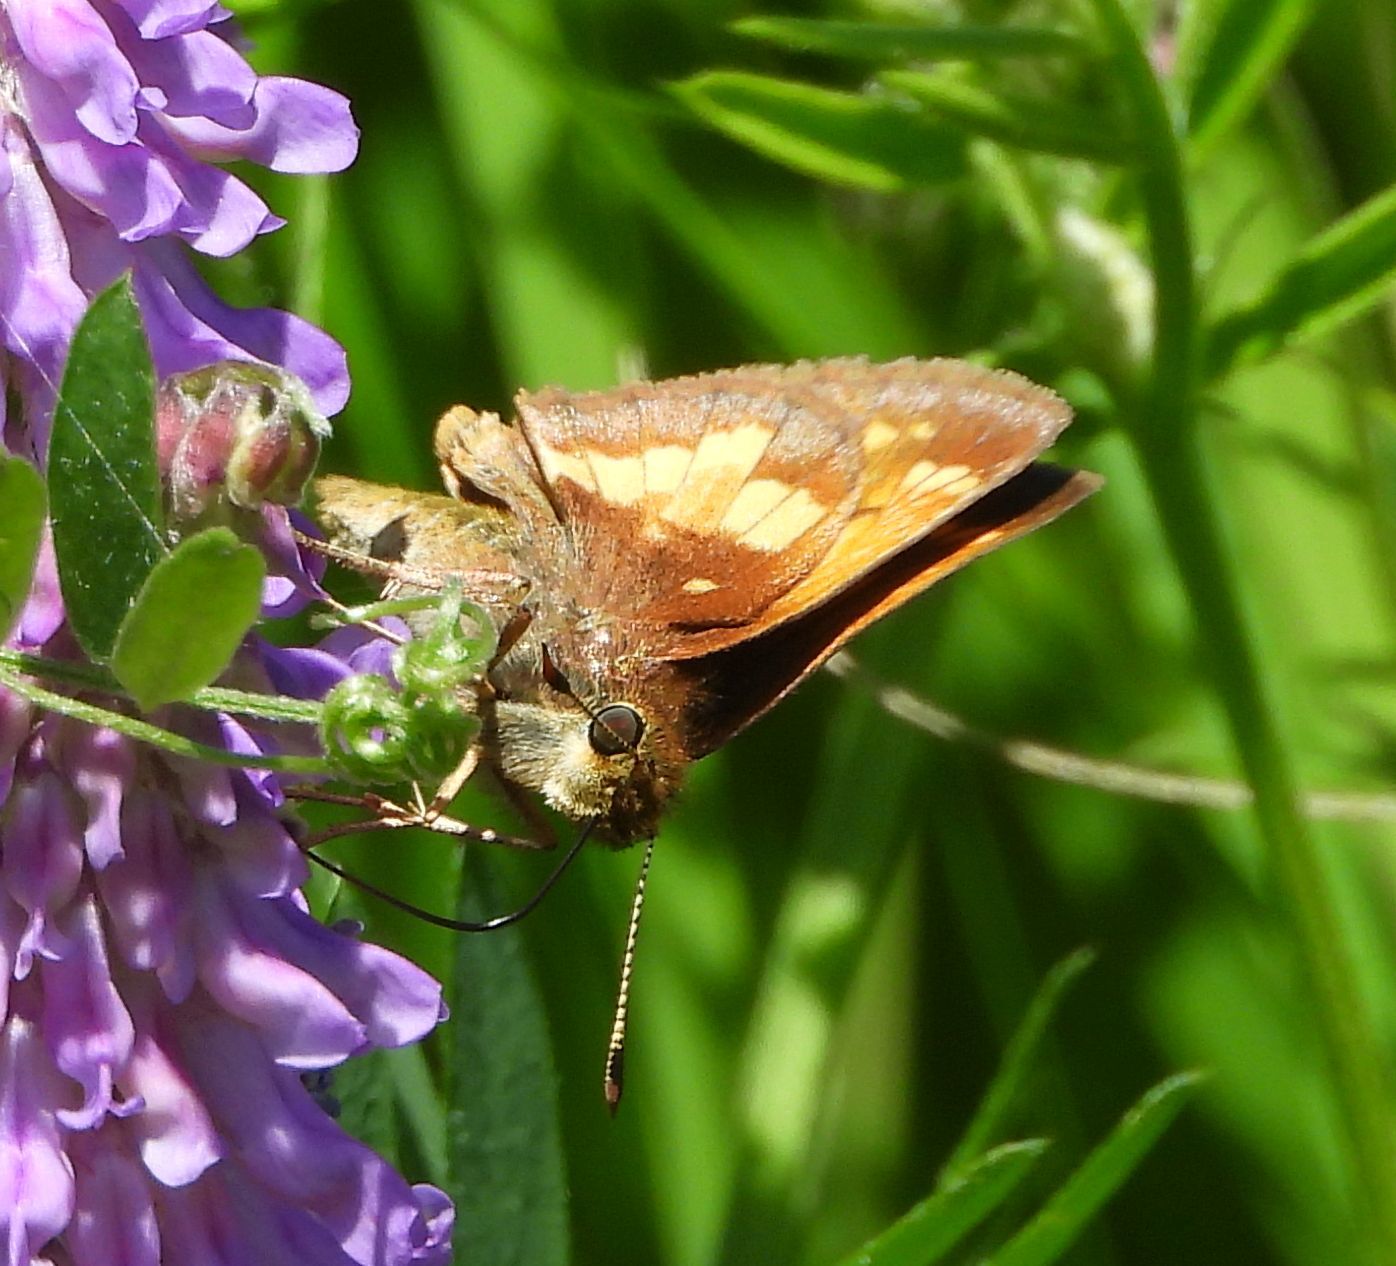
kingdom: Animalia
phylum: Arthropoda
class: Insecta
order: Lepidoptera
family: Hesperiidae
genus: Lon
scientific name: Lon hobomok
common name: Hobomok skipper
